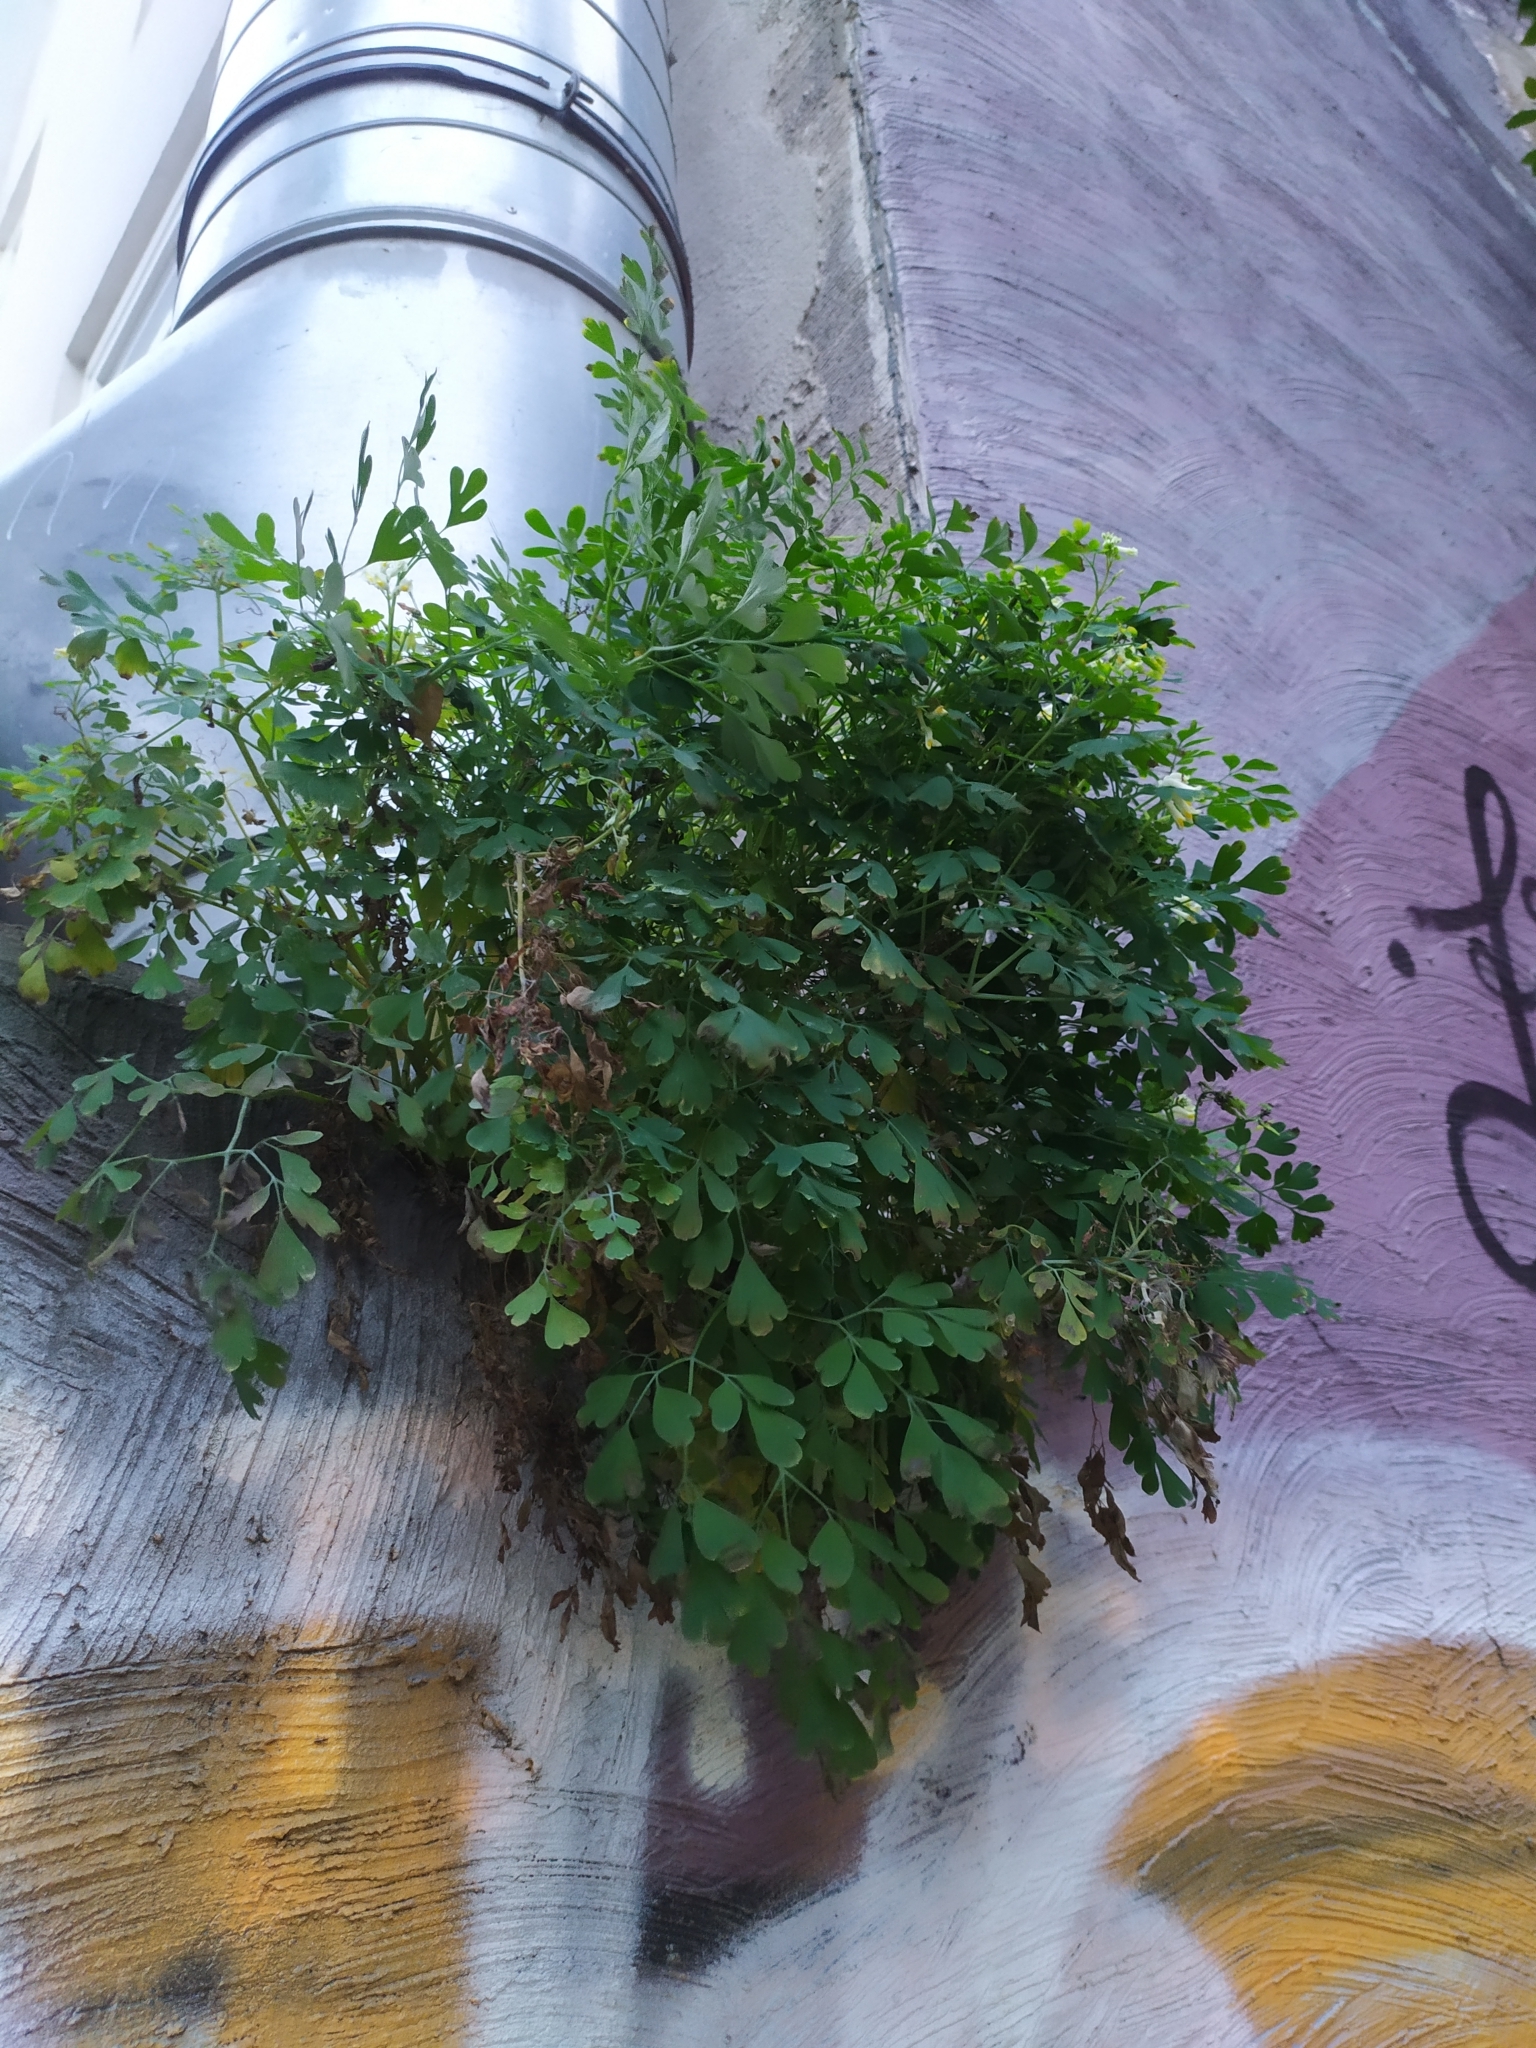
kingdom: Plantae
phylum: Tracheophyta
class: Magnoliopsida
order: Ranunculales
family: Papaveraceae
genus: Pseudofumaria
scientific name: Pseudofumaria alba
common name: Pale corydalis
